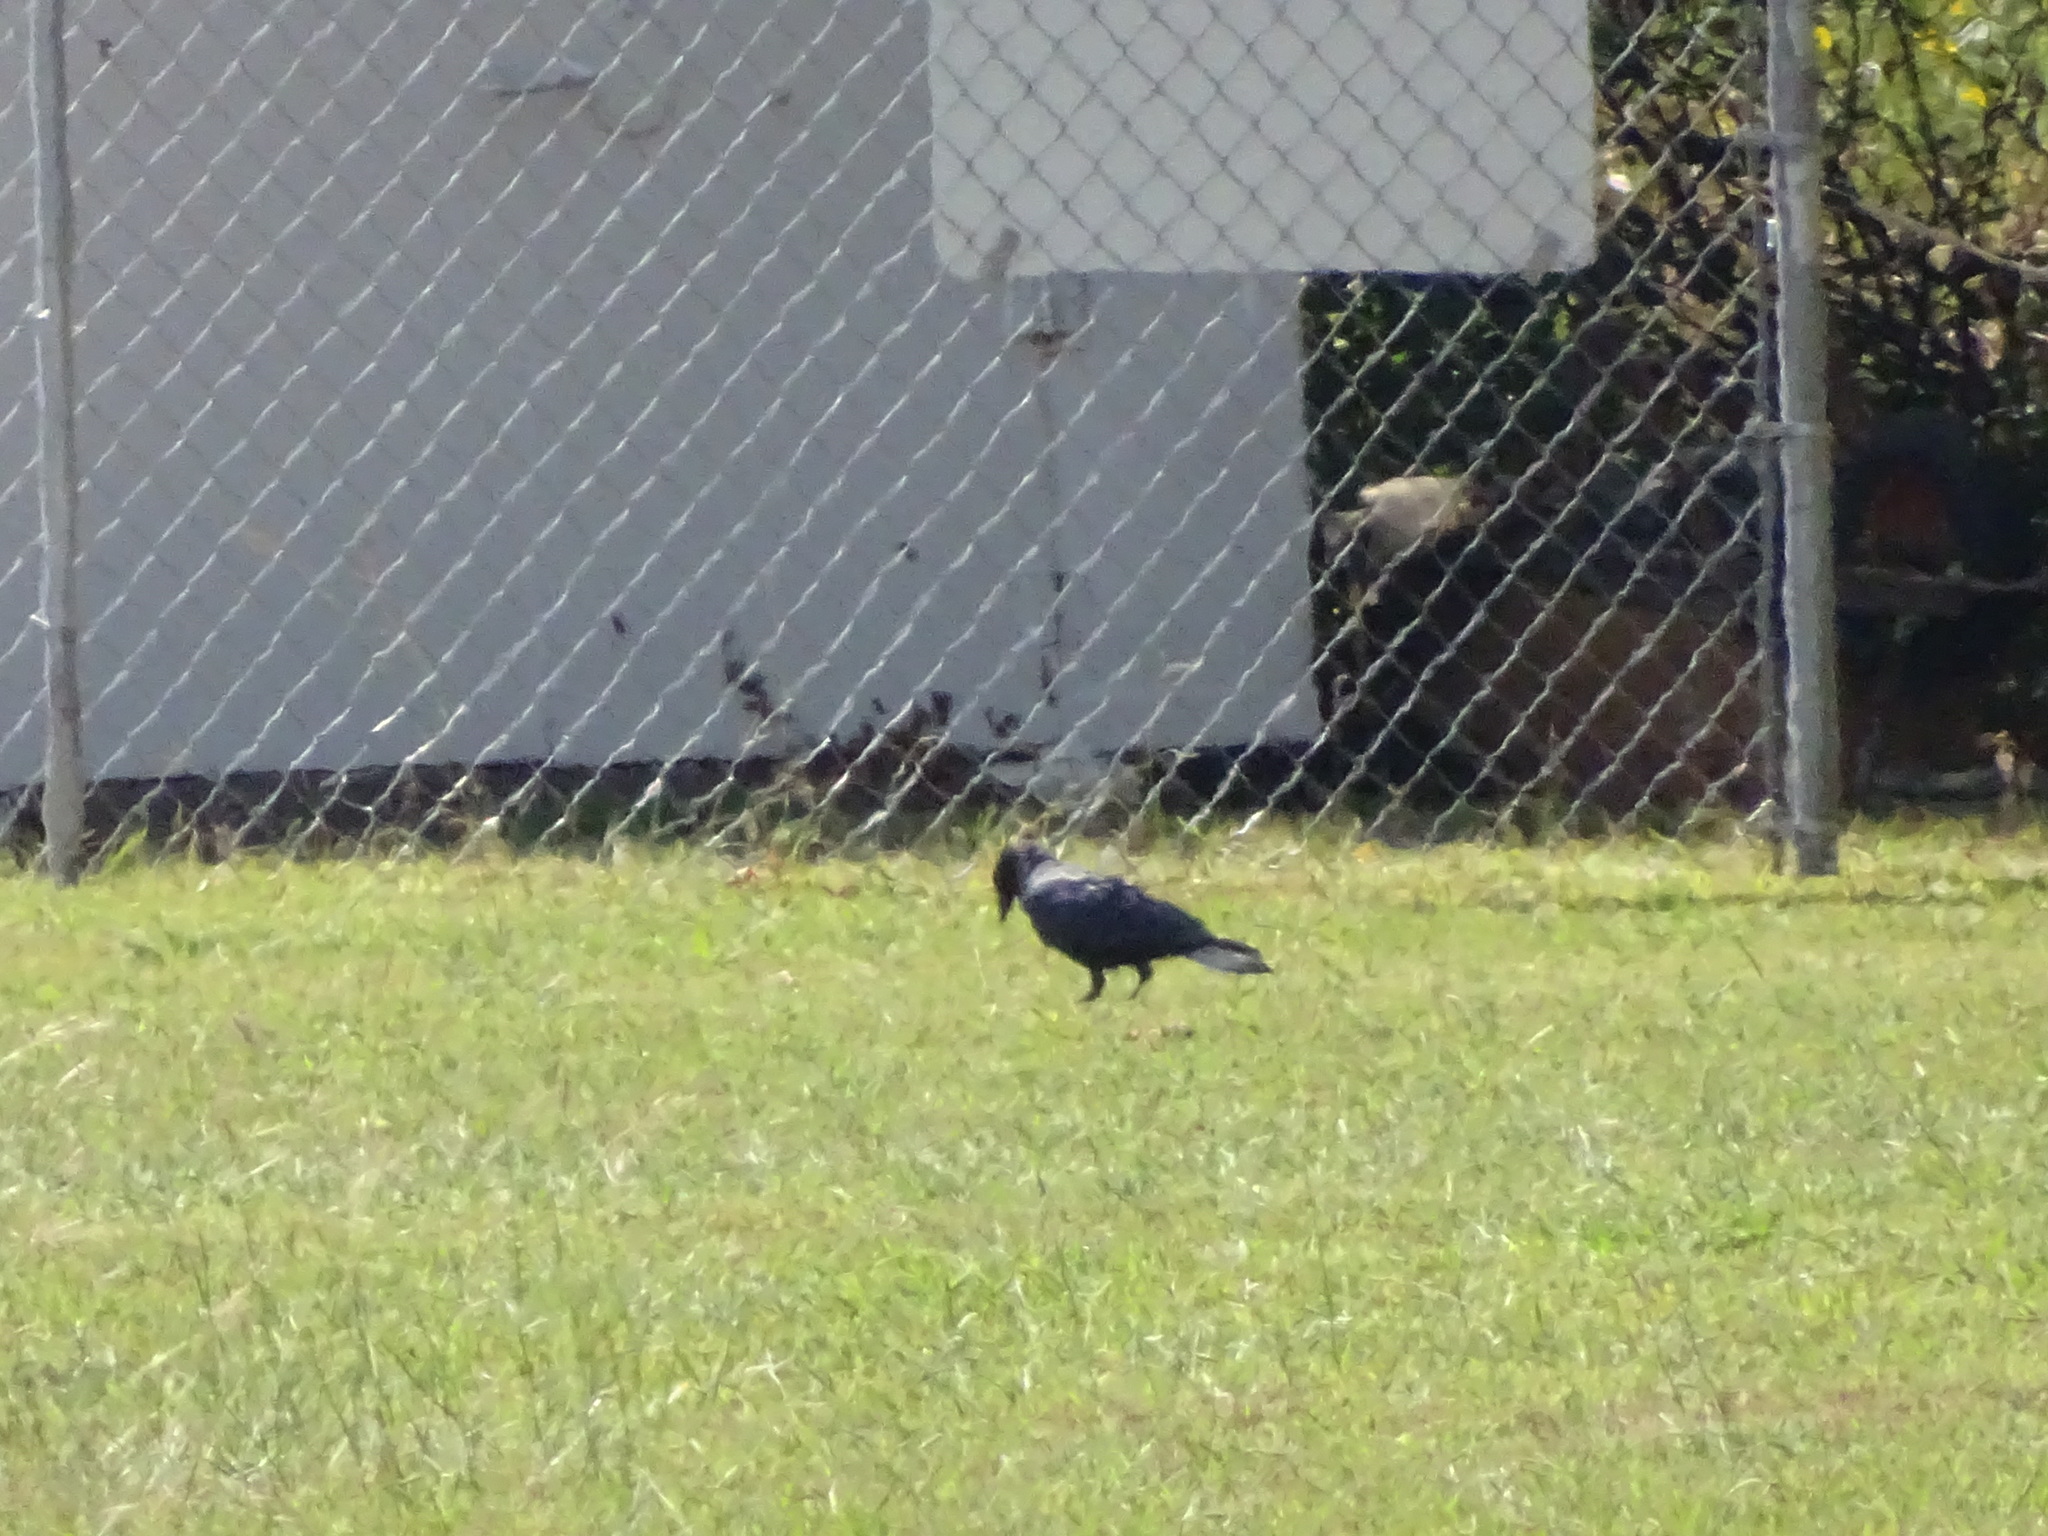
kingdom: Animalia
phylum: Chordata
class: Aves
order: Passeriformes
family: Corvidae
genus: Corvus
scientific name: Corvus brachyrhynchos
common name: American crow
